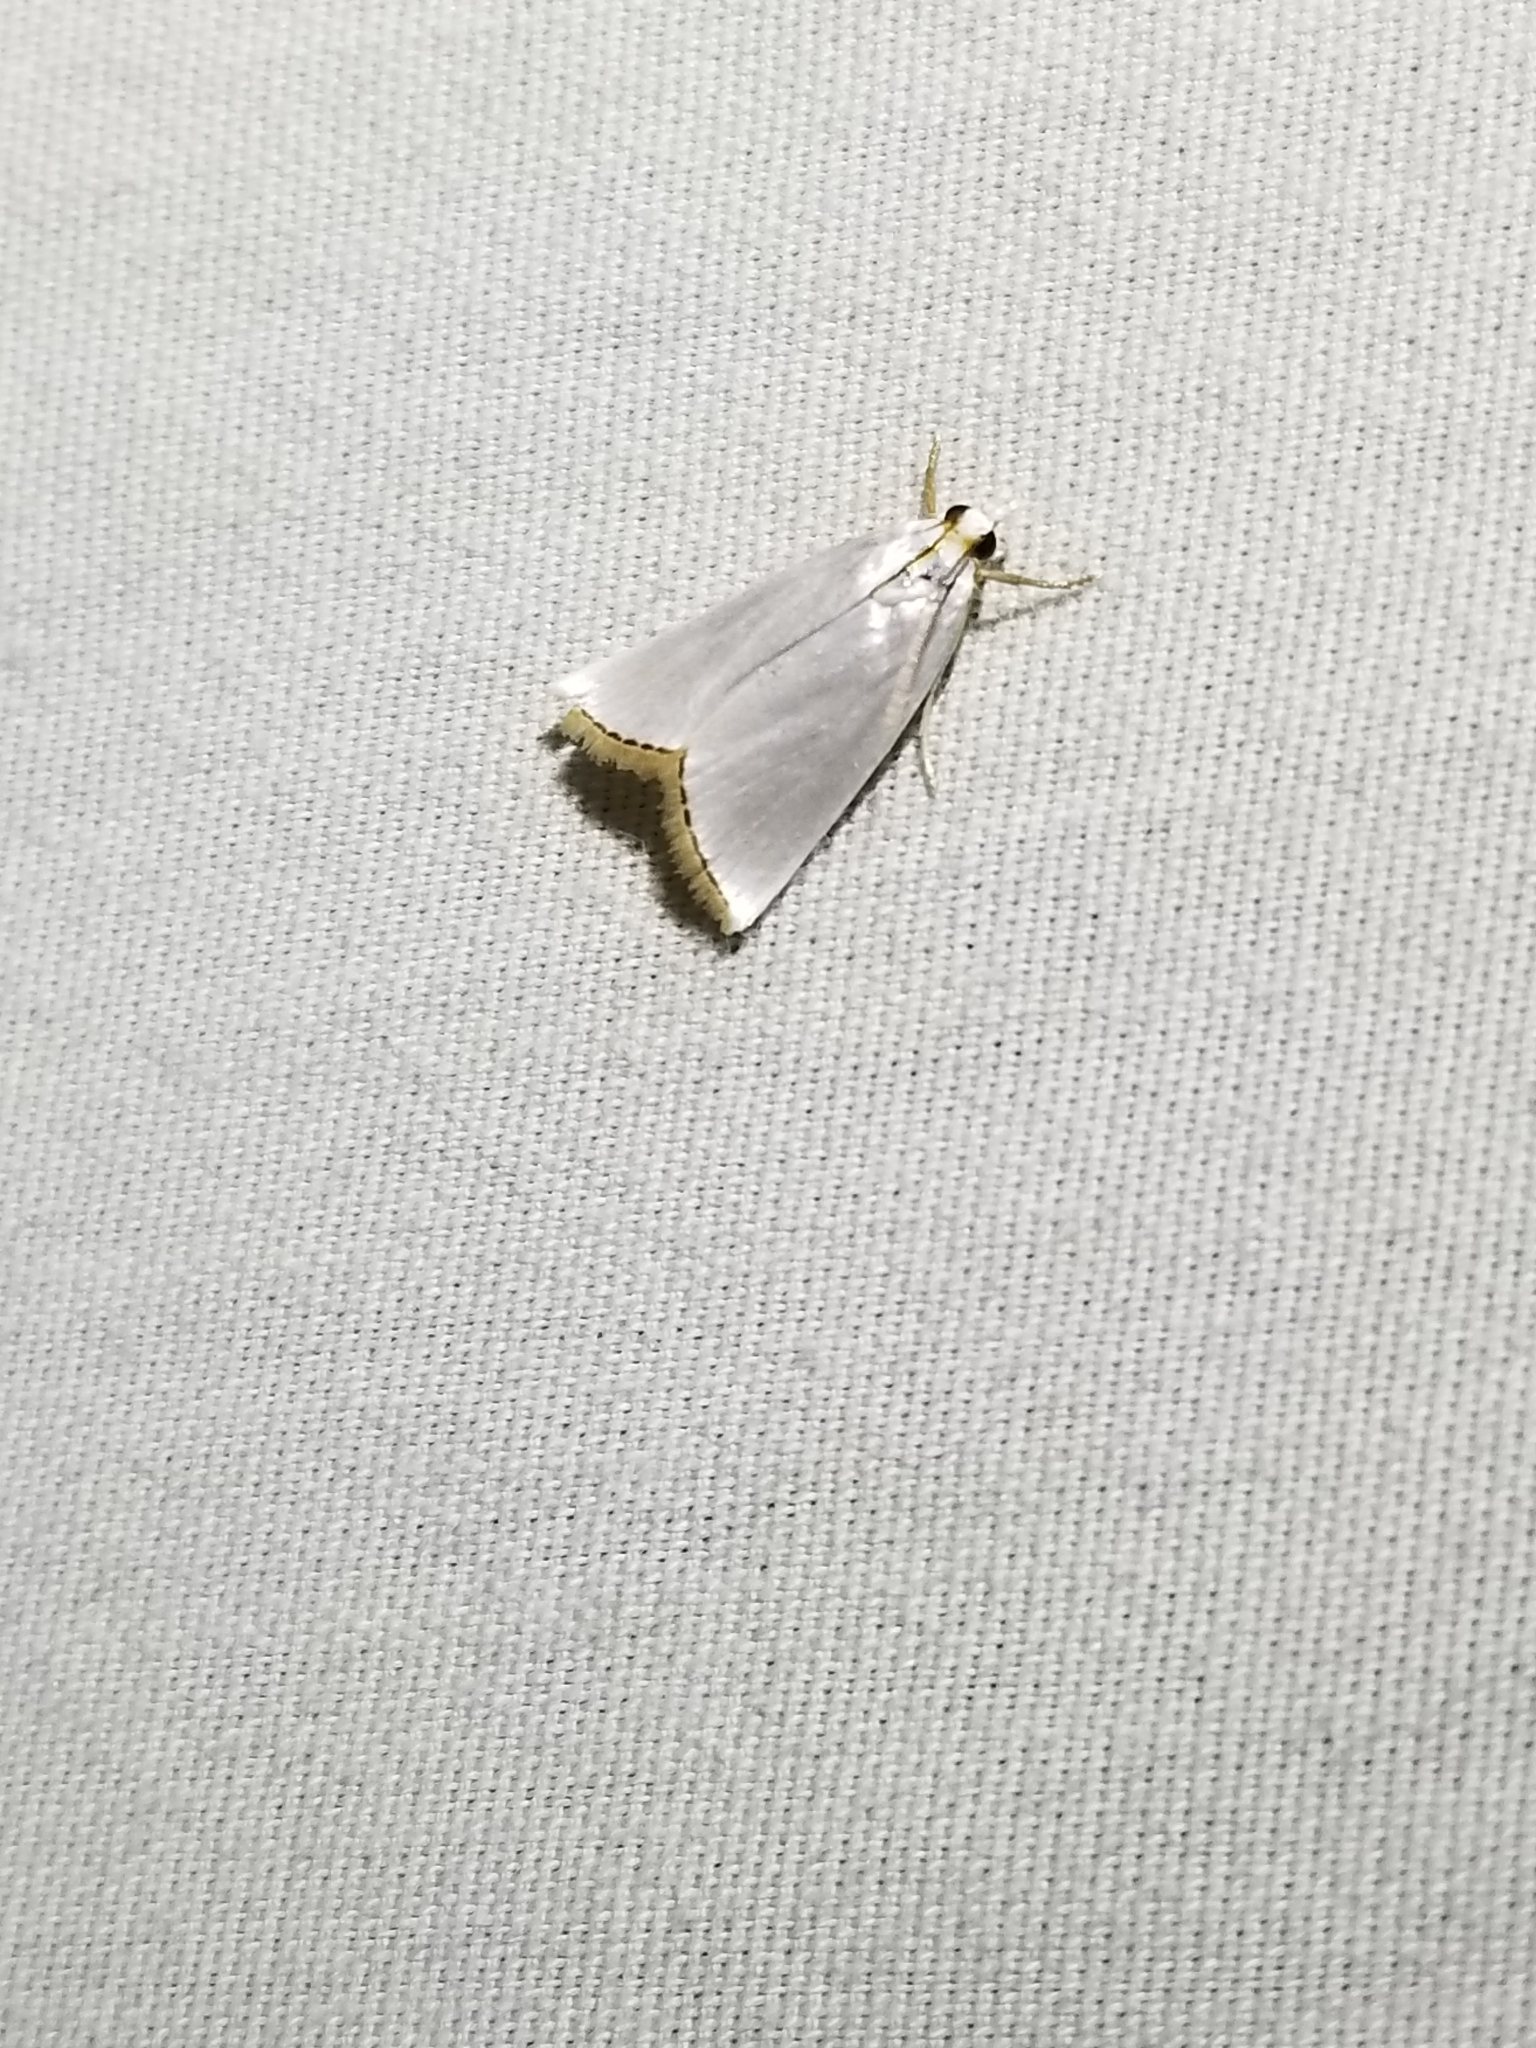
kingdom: Animalia
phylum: Arthropoda
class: Insecta
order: Lepidoptera
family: Crambidae
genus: Argyria
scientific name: Argyria nivalis
